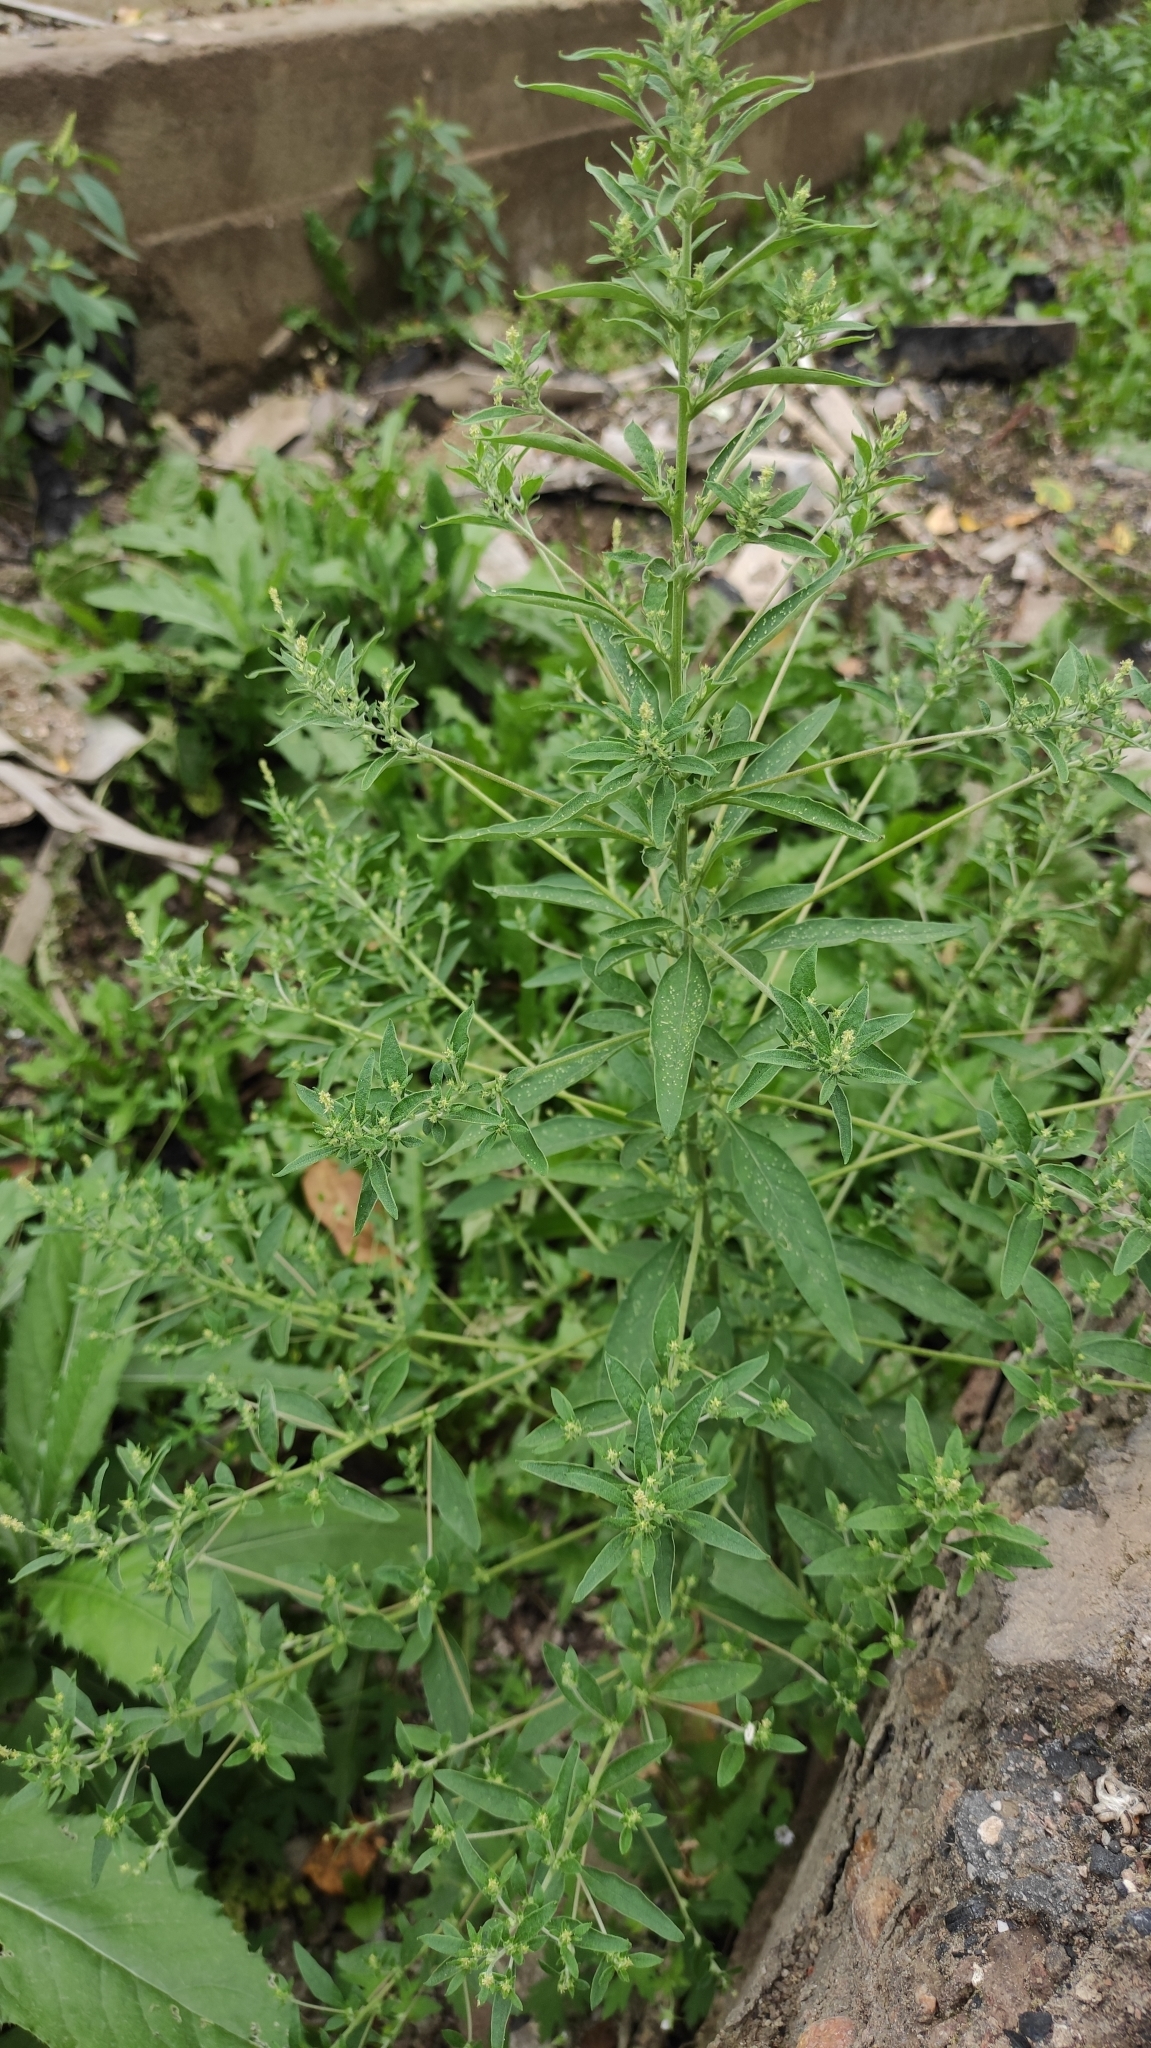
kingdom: Plantae
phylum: Tracheophyta
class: Magnoliopsida
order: Caryophyllales
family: Amaranthaceae
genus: Axyris
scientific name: Axyris amaranthoides
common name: Russian pigweed
